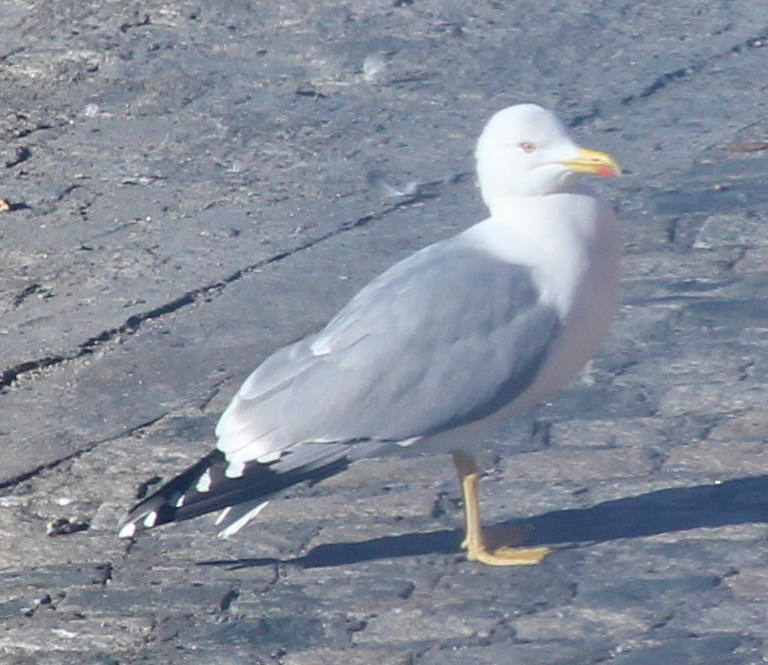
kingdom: Animalia
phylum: Chordata
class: Aves
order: Charadriiformes
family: Laridae
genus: Larus
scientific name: Larus michahellis
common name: Yellow-legged gull
